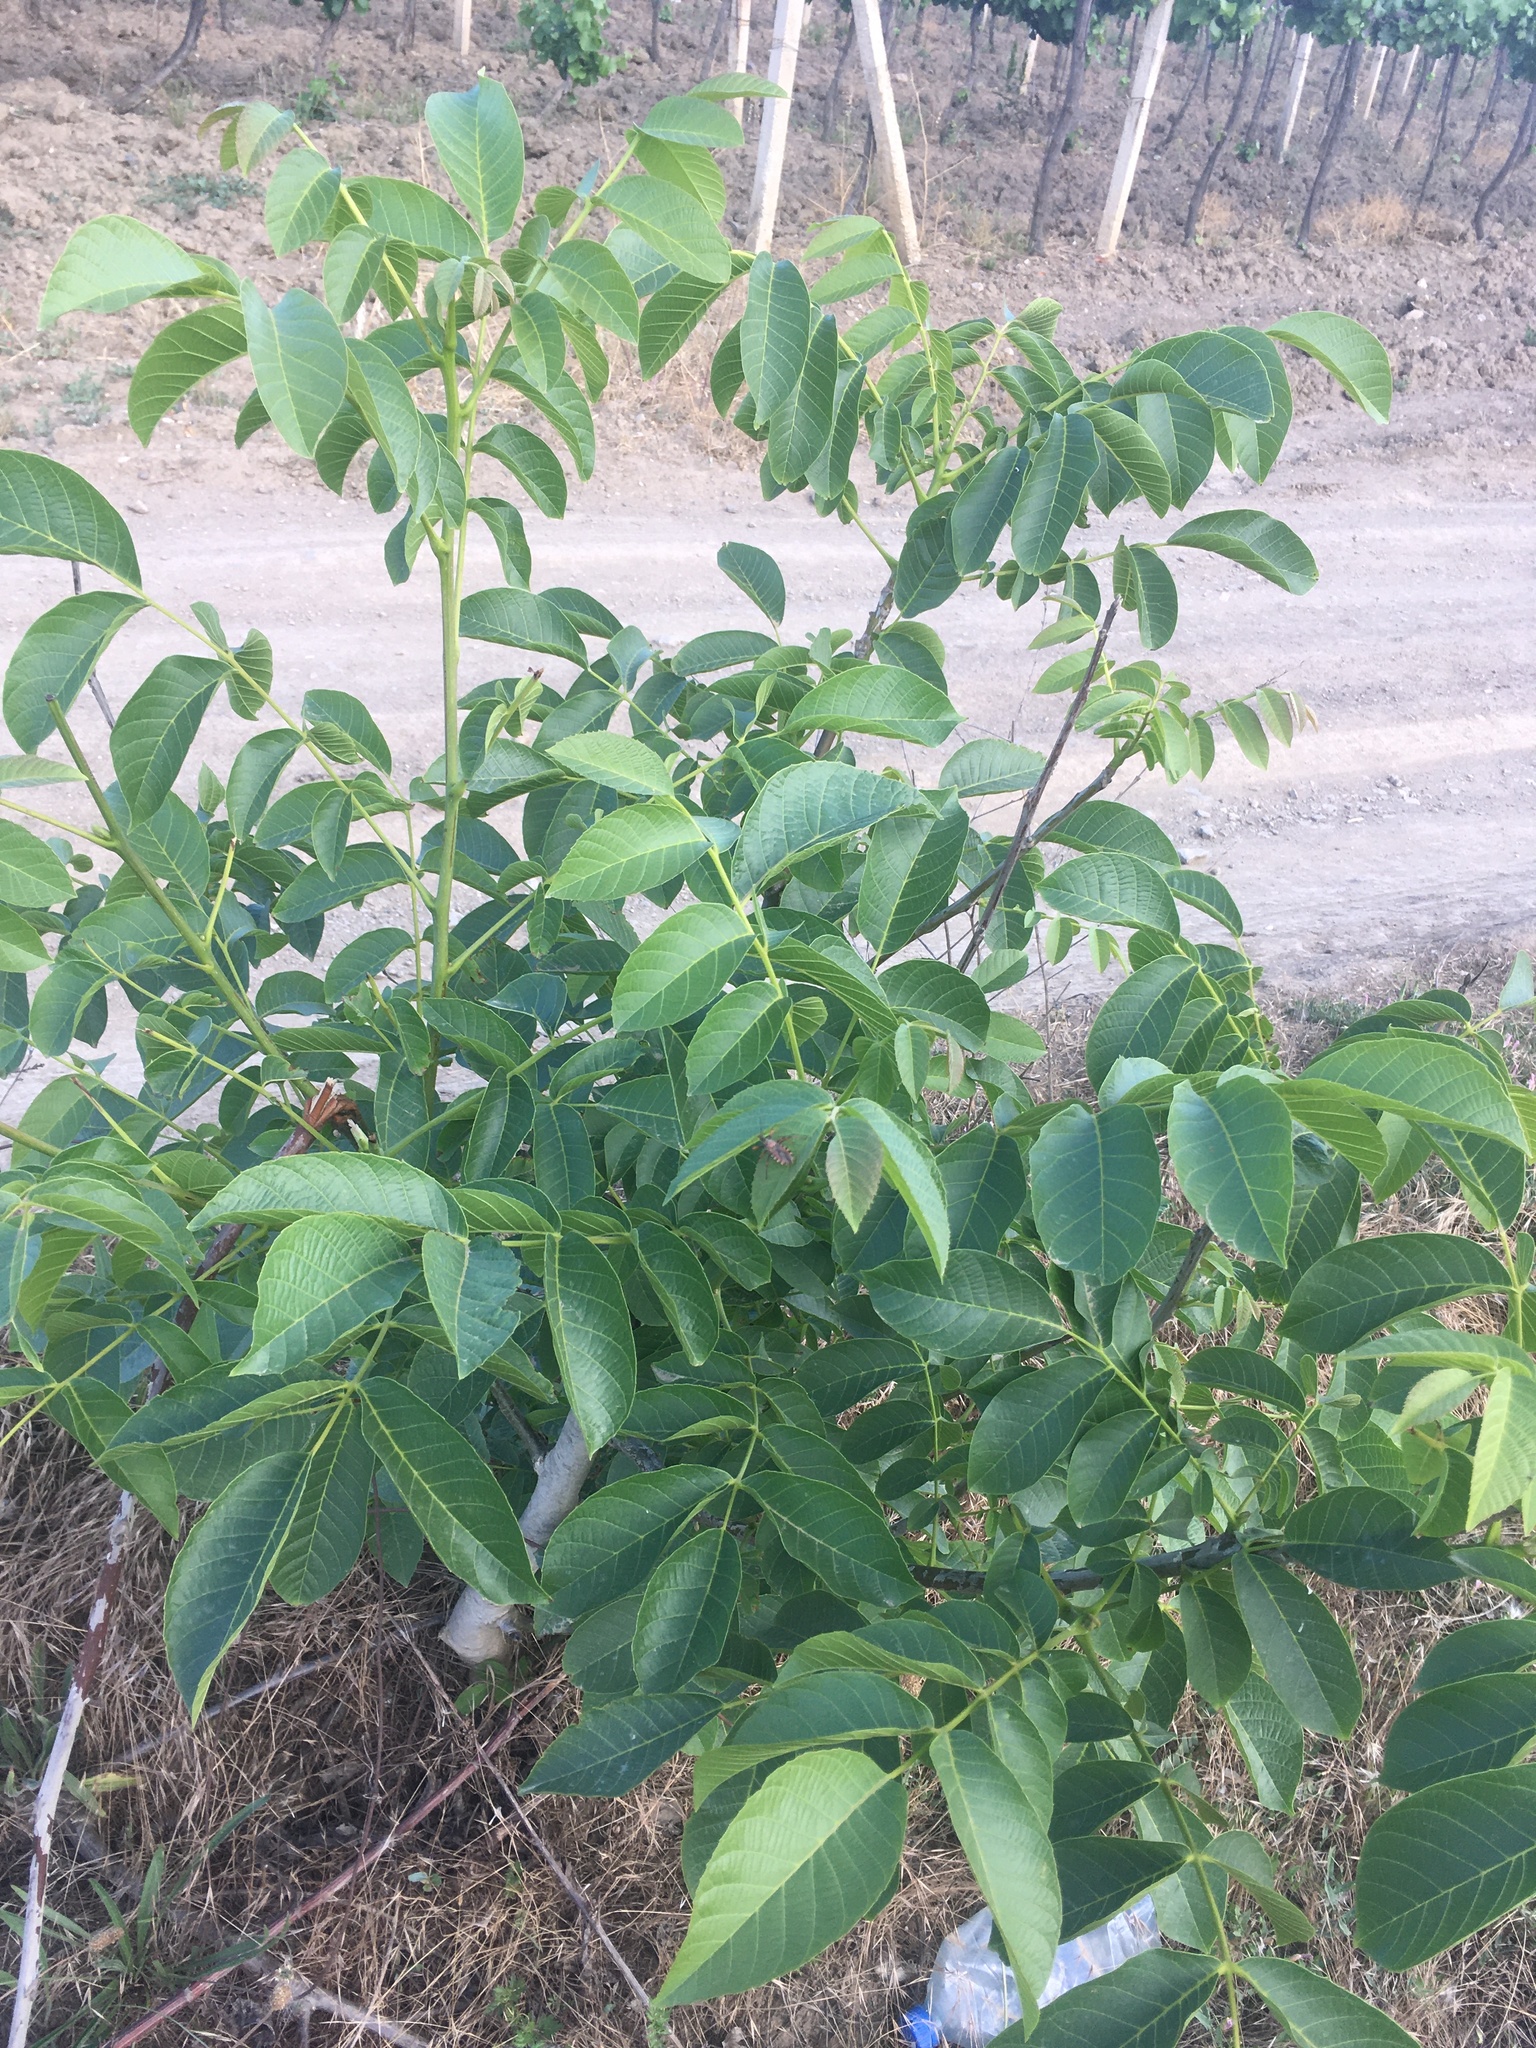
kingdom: Plantae
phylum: Tracheophyta
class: Magnoliopsida
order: Fagales
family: Juglandaceae
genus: Juglans
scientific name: Juglans regia
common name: Walnut
